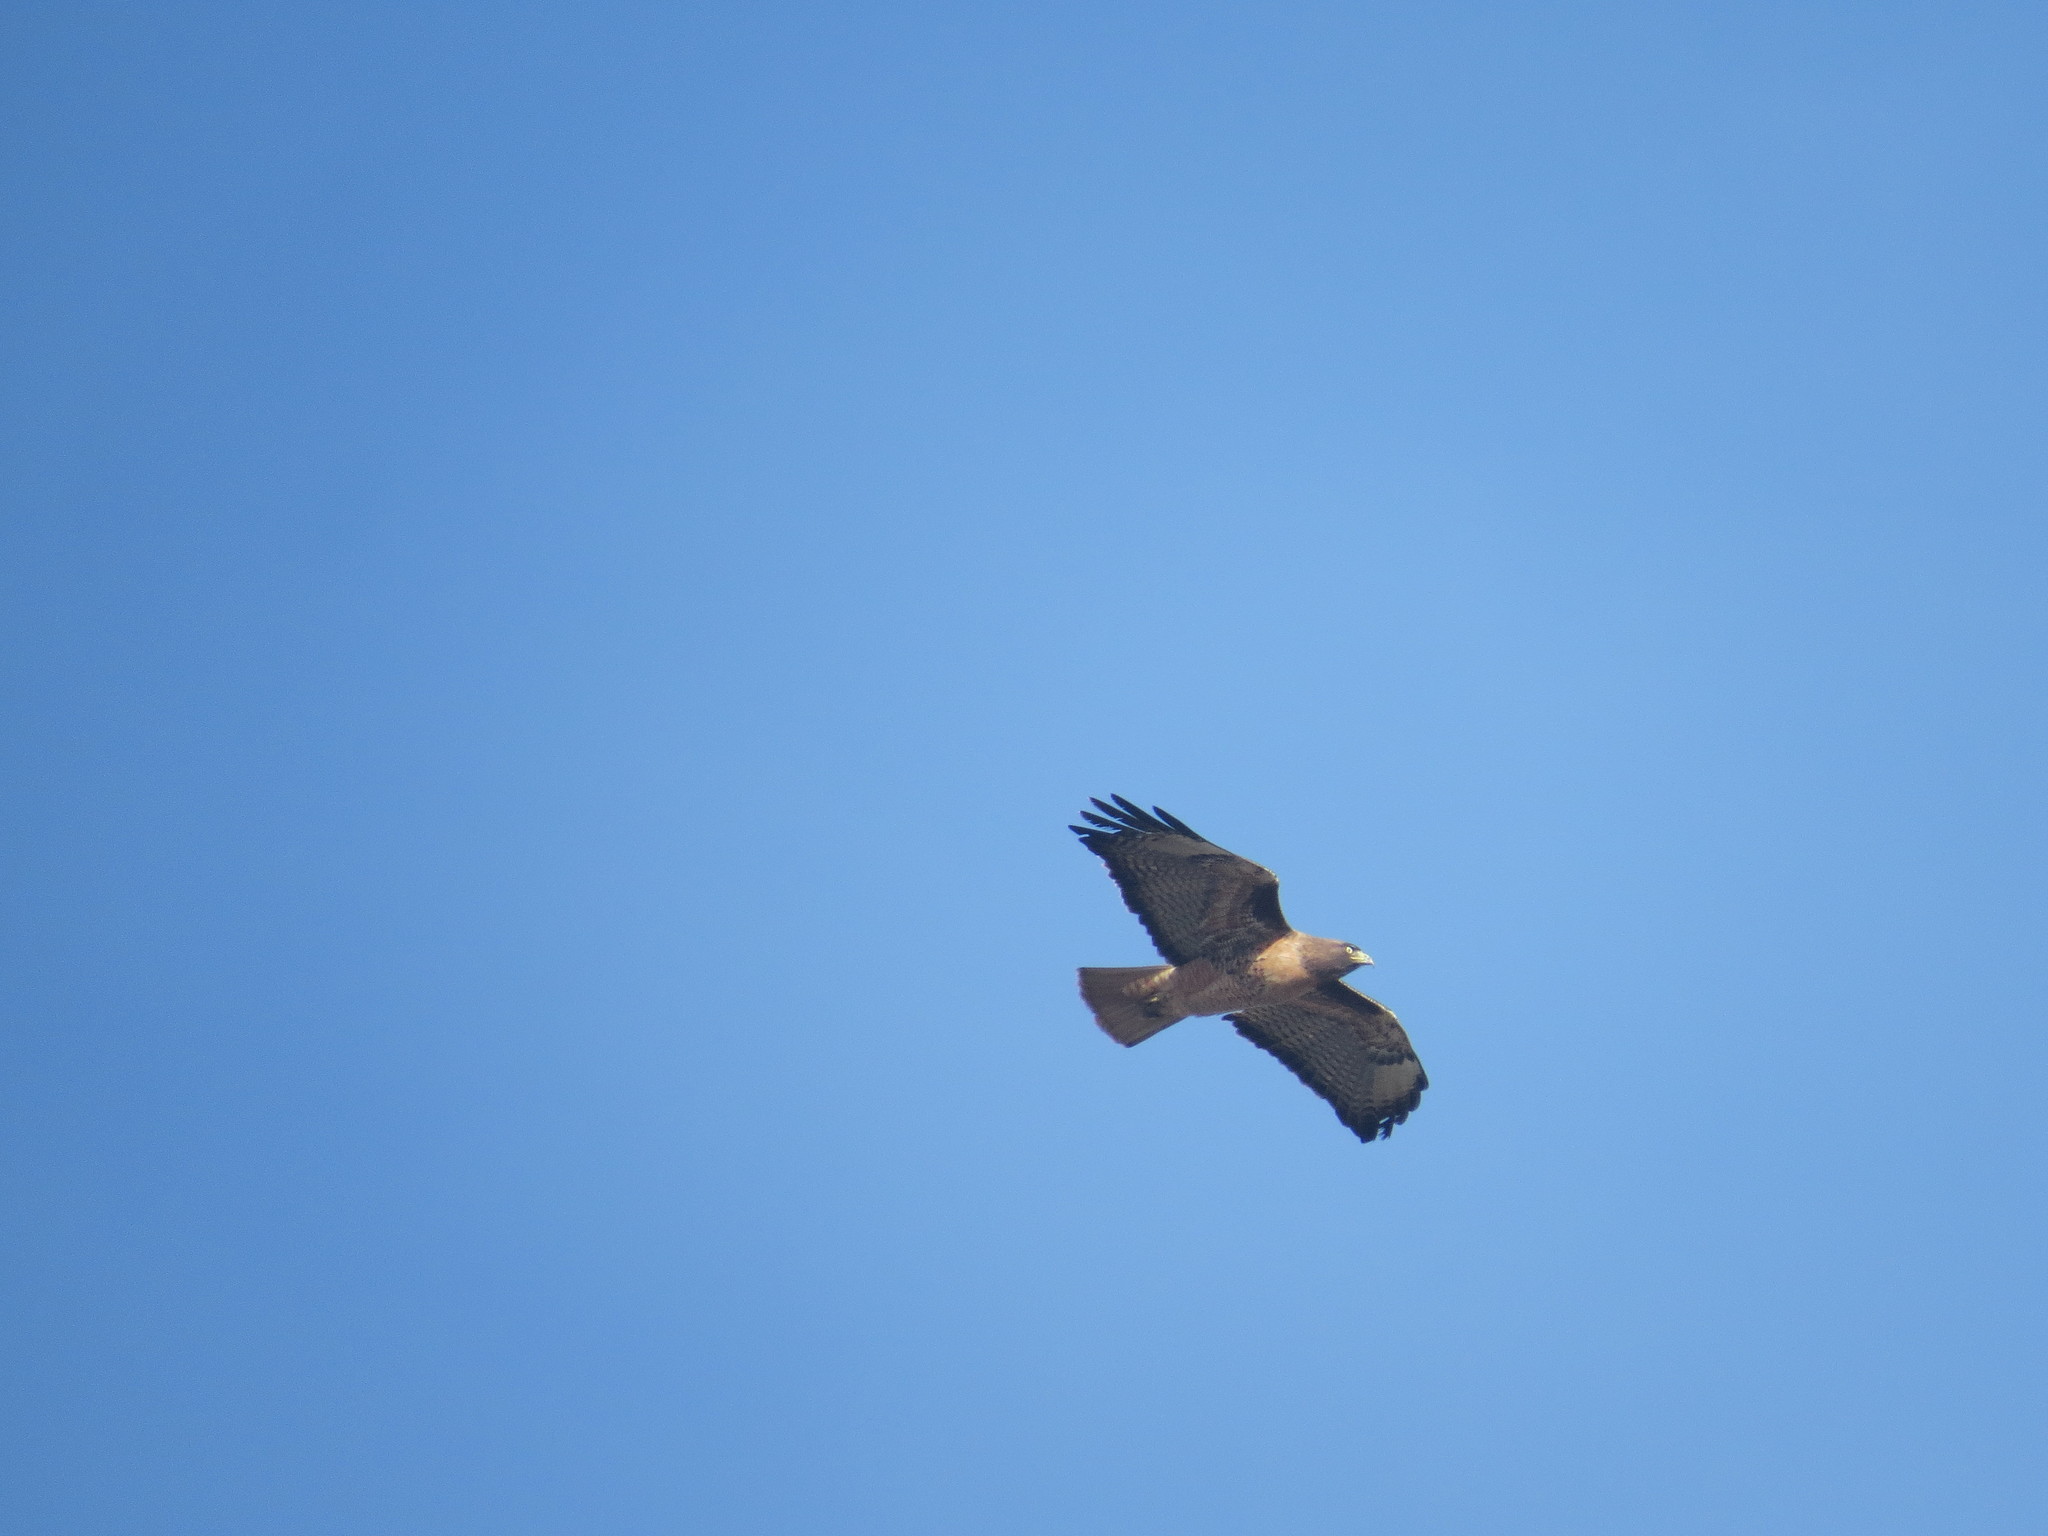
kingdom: Animalia
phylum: Chordata
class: Aves
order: Accipitriformes
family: Accipitridae
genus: Buteo
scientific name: Buteo jamaicensis
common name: Red-tailed hawk
